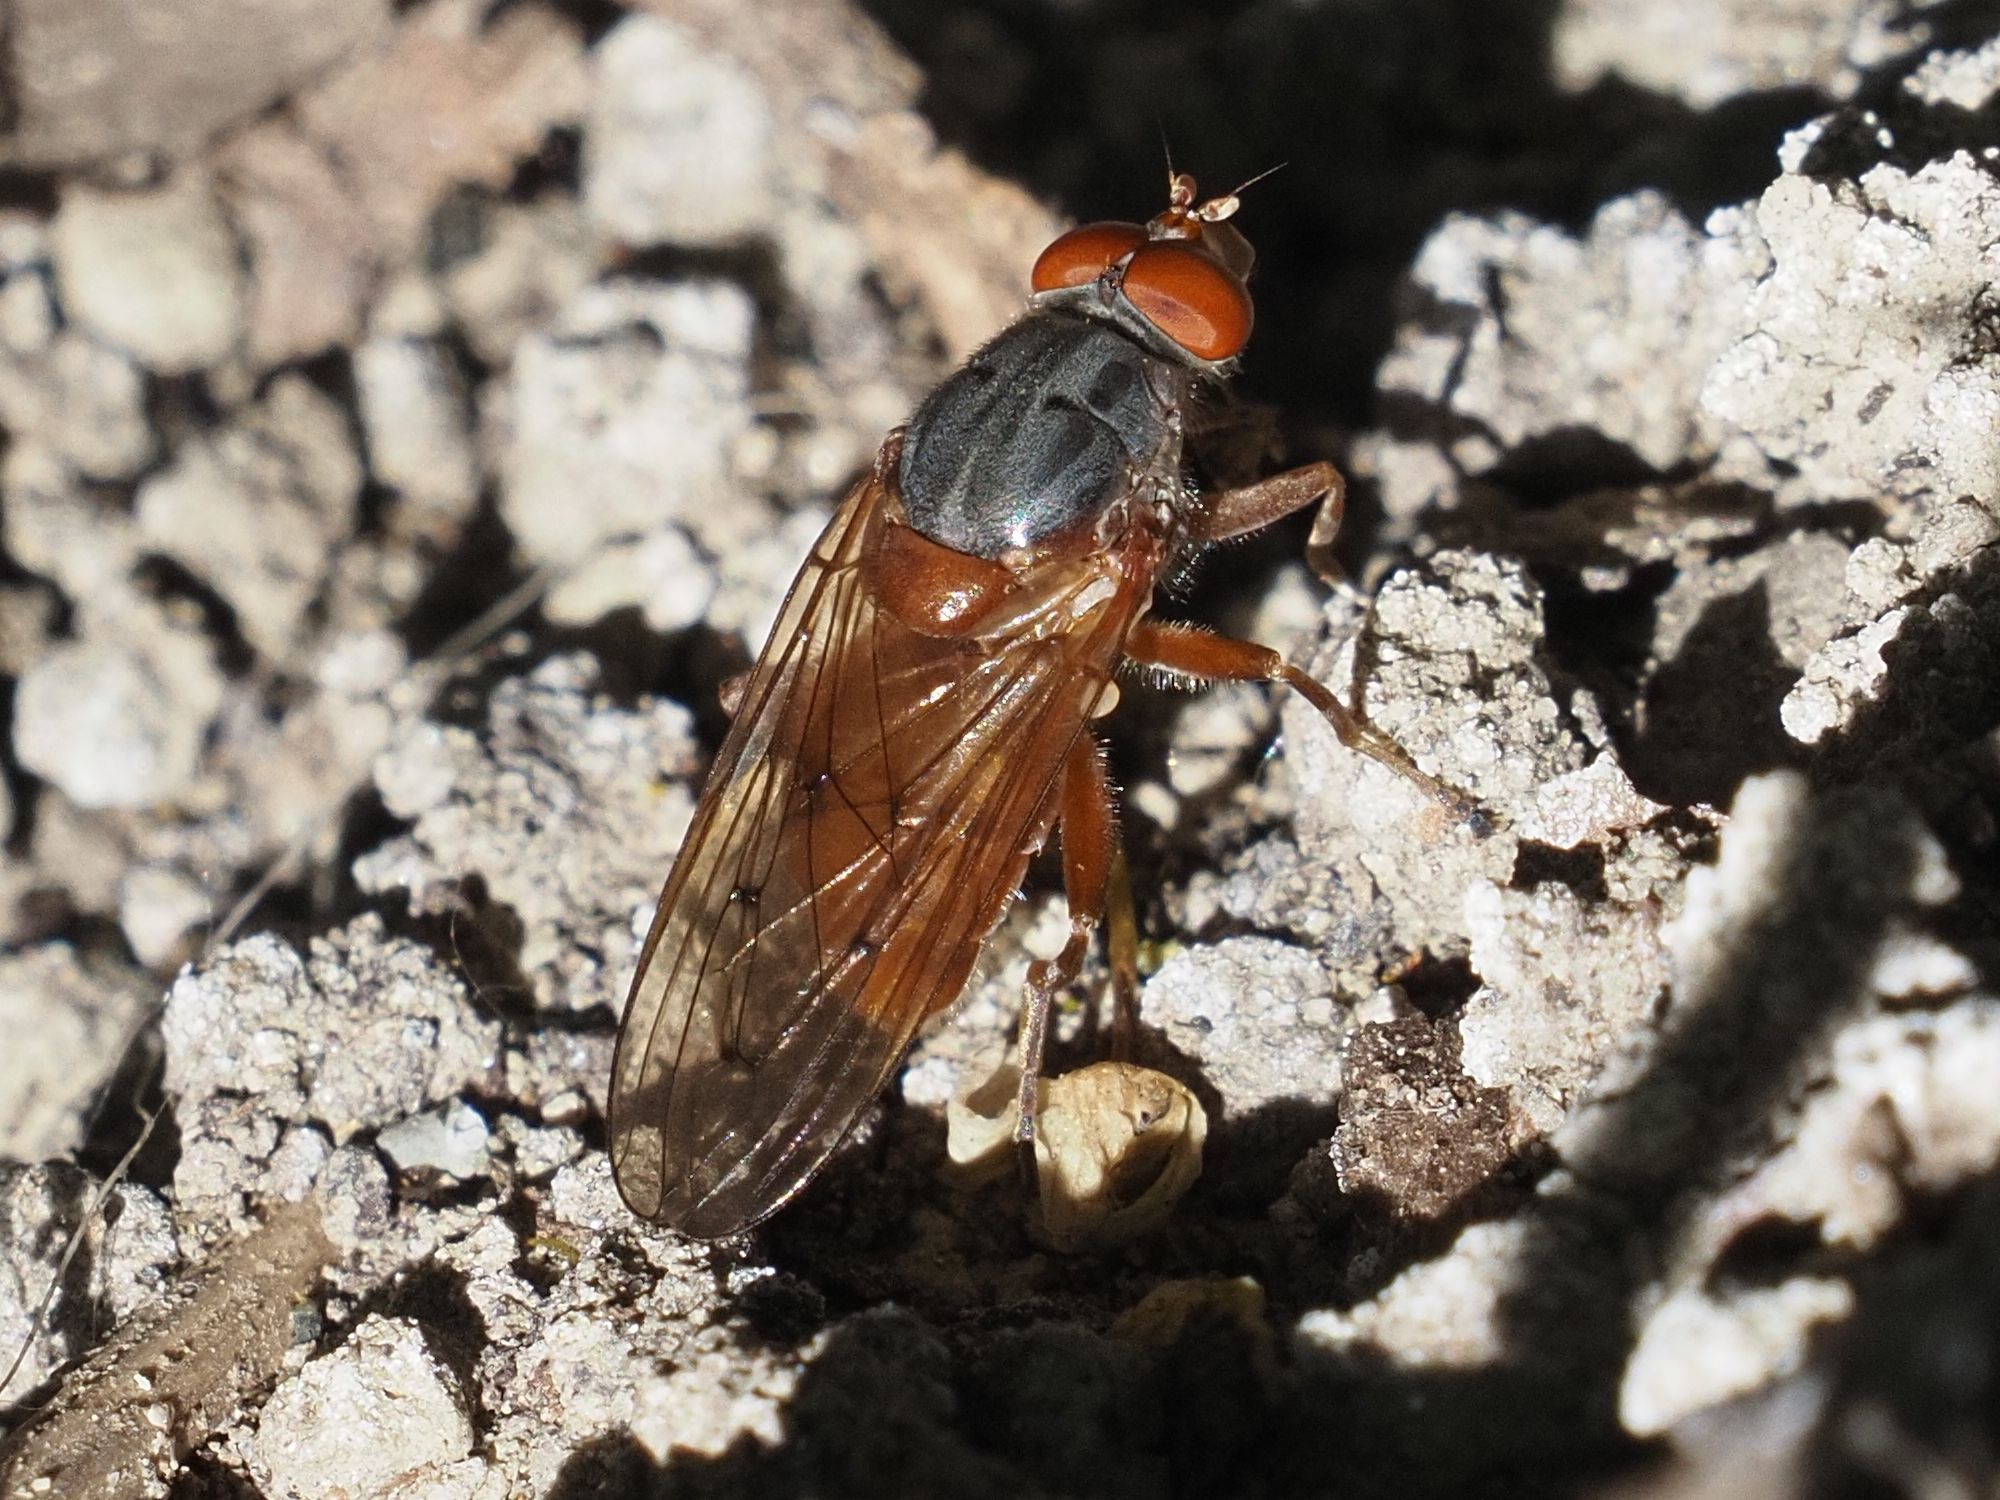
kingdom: Animalia
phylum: Arthropoda
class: Insecta
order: Diptera
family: Syrphidae
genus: Brachyopa
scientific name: Brachyopa maculipennis
